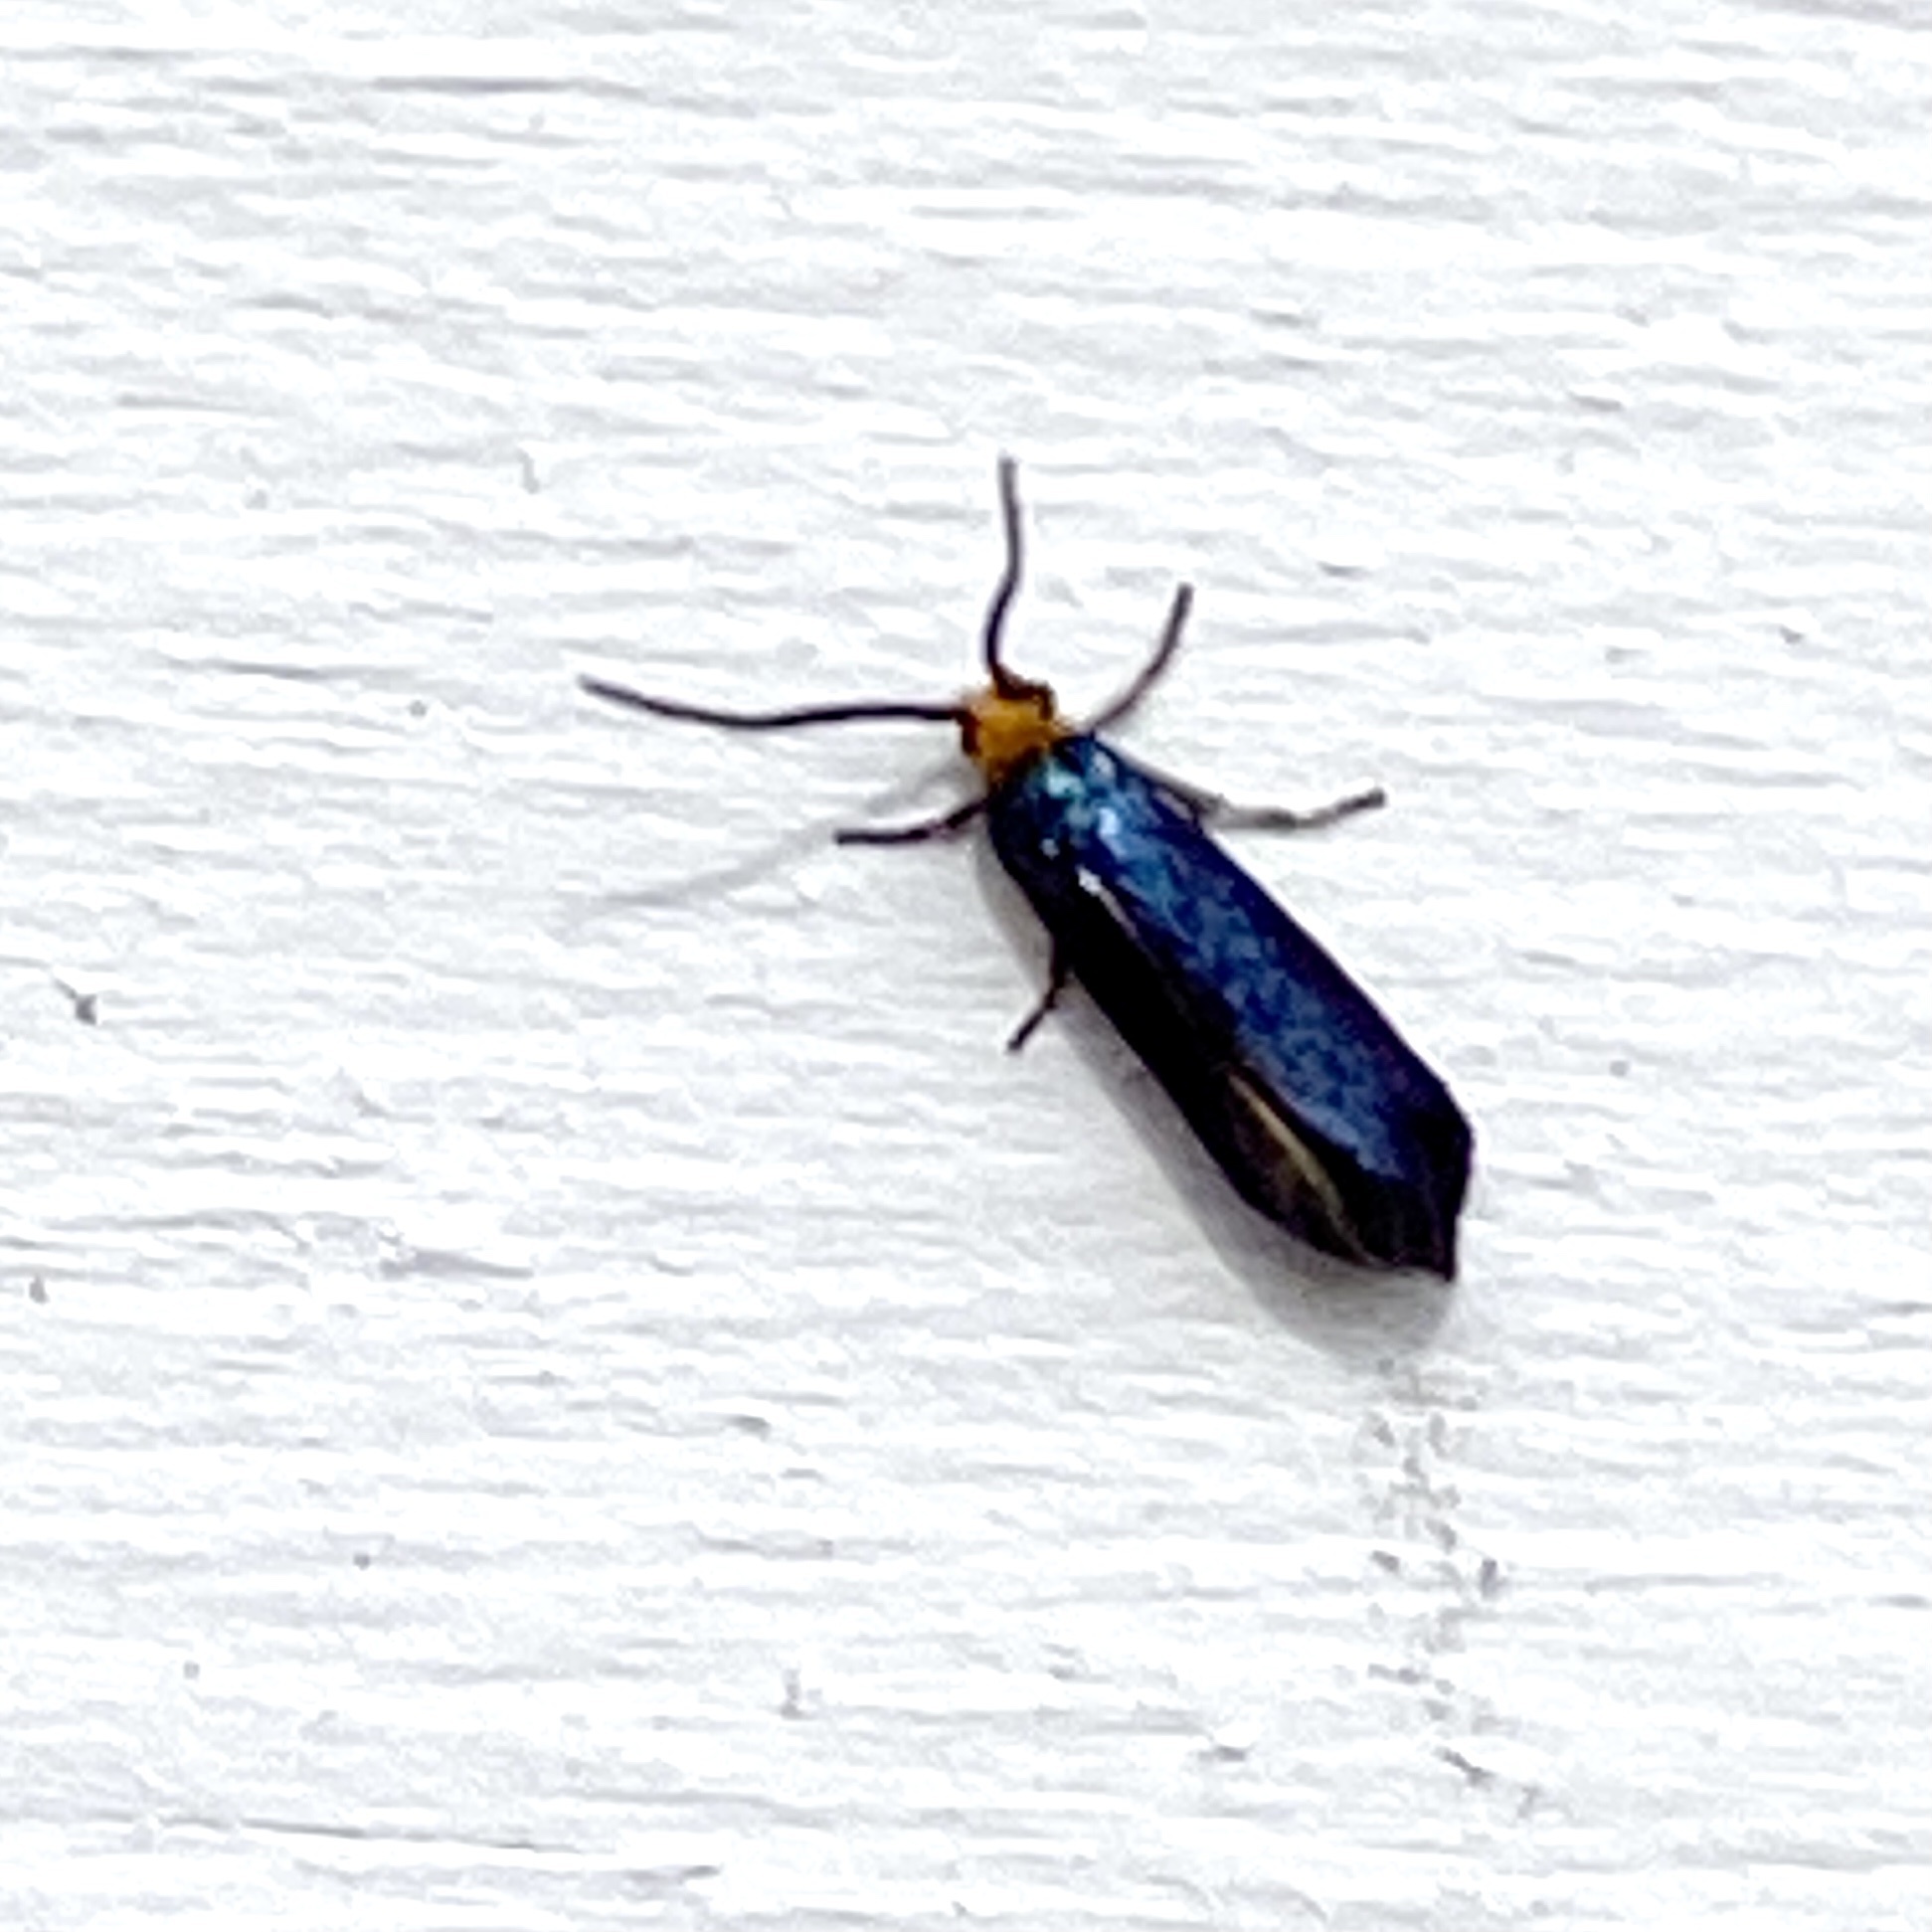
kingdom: Animalia
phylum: Arthropoda
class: Insecta
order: Lepidoptera
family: Incurvariidae
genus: Paraclemensia
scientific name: Paraclemensia acerifoliella
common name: Maple leafcutter
